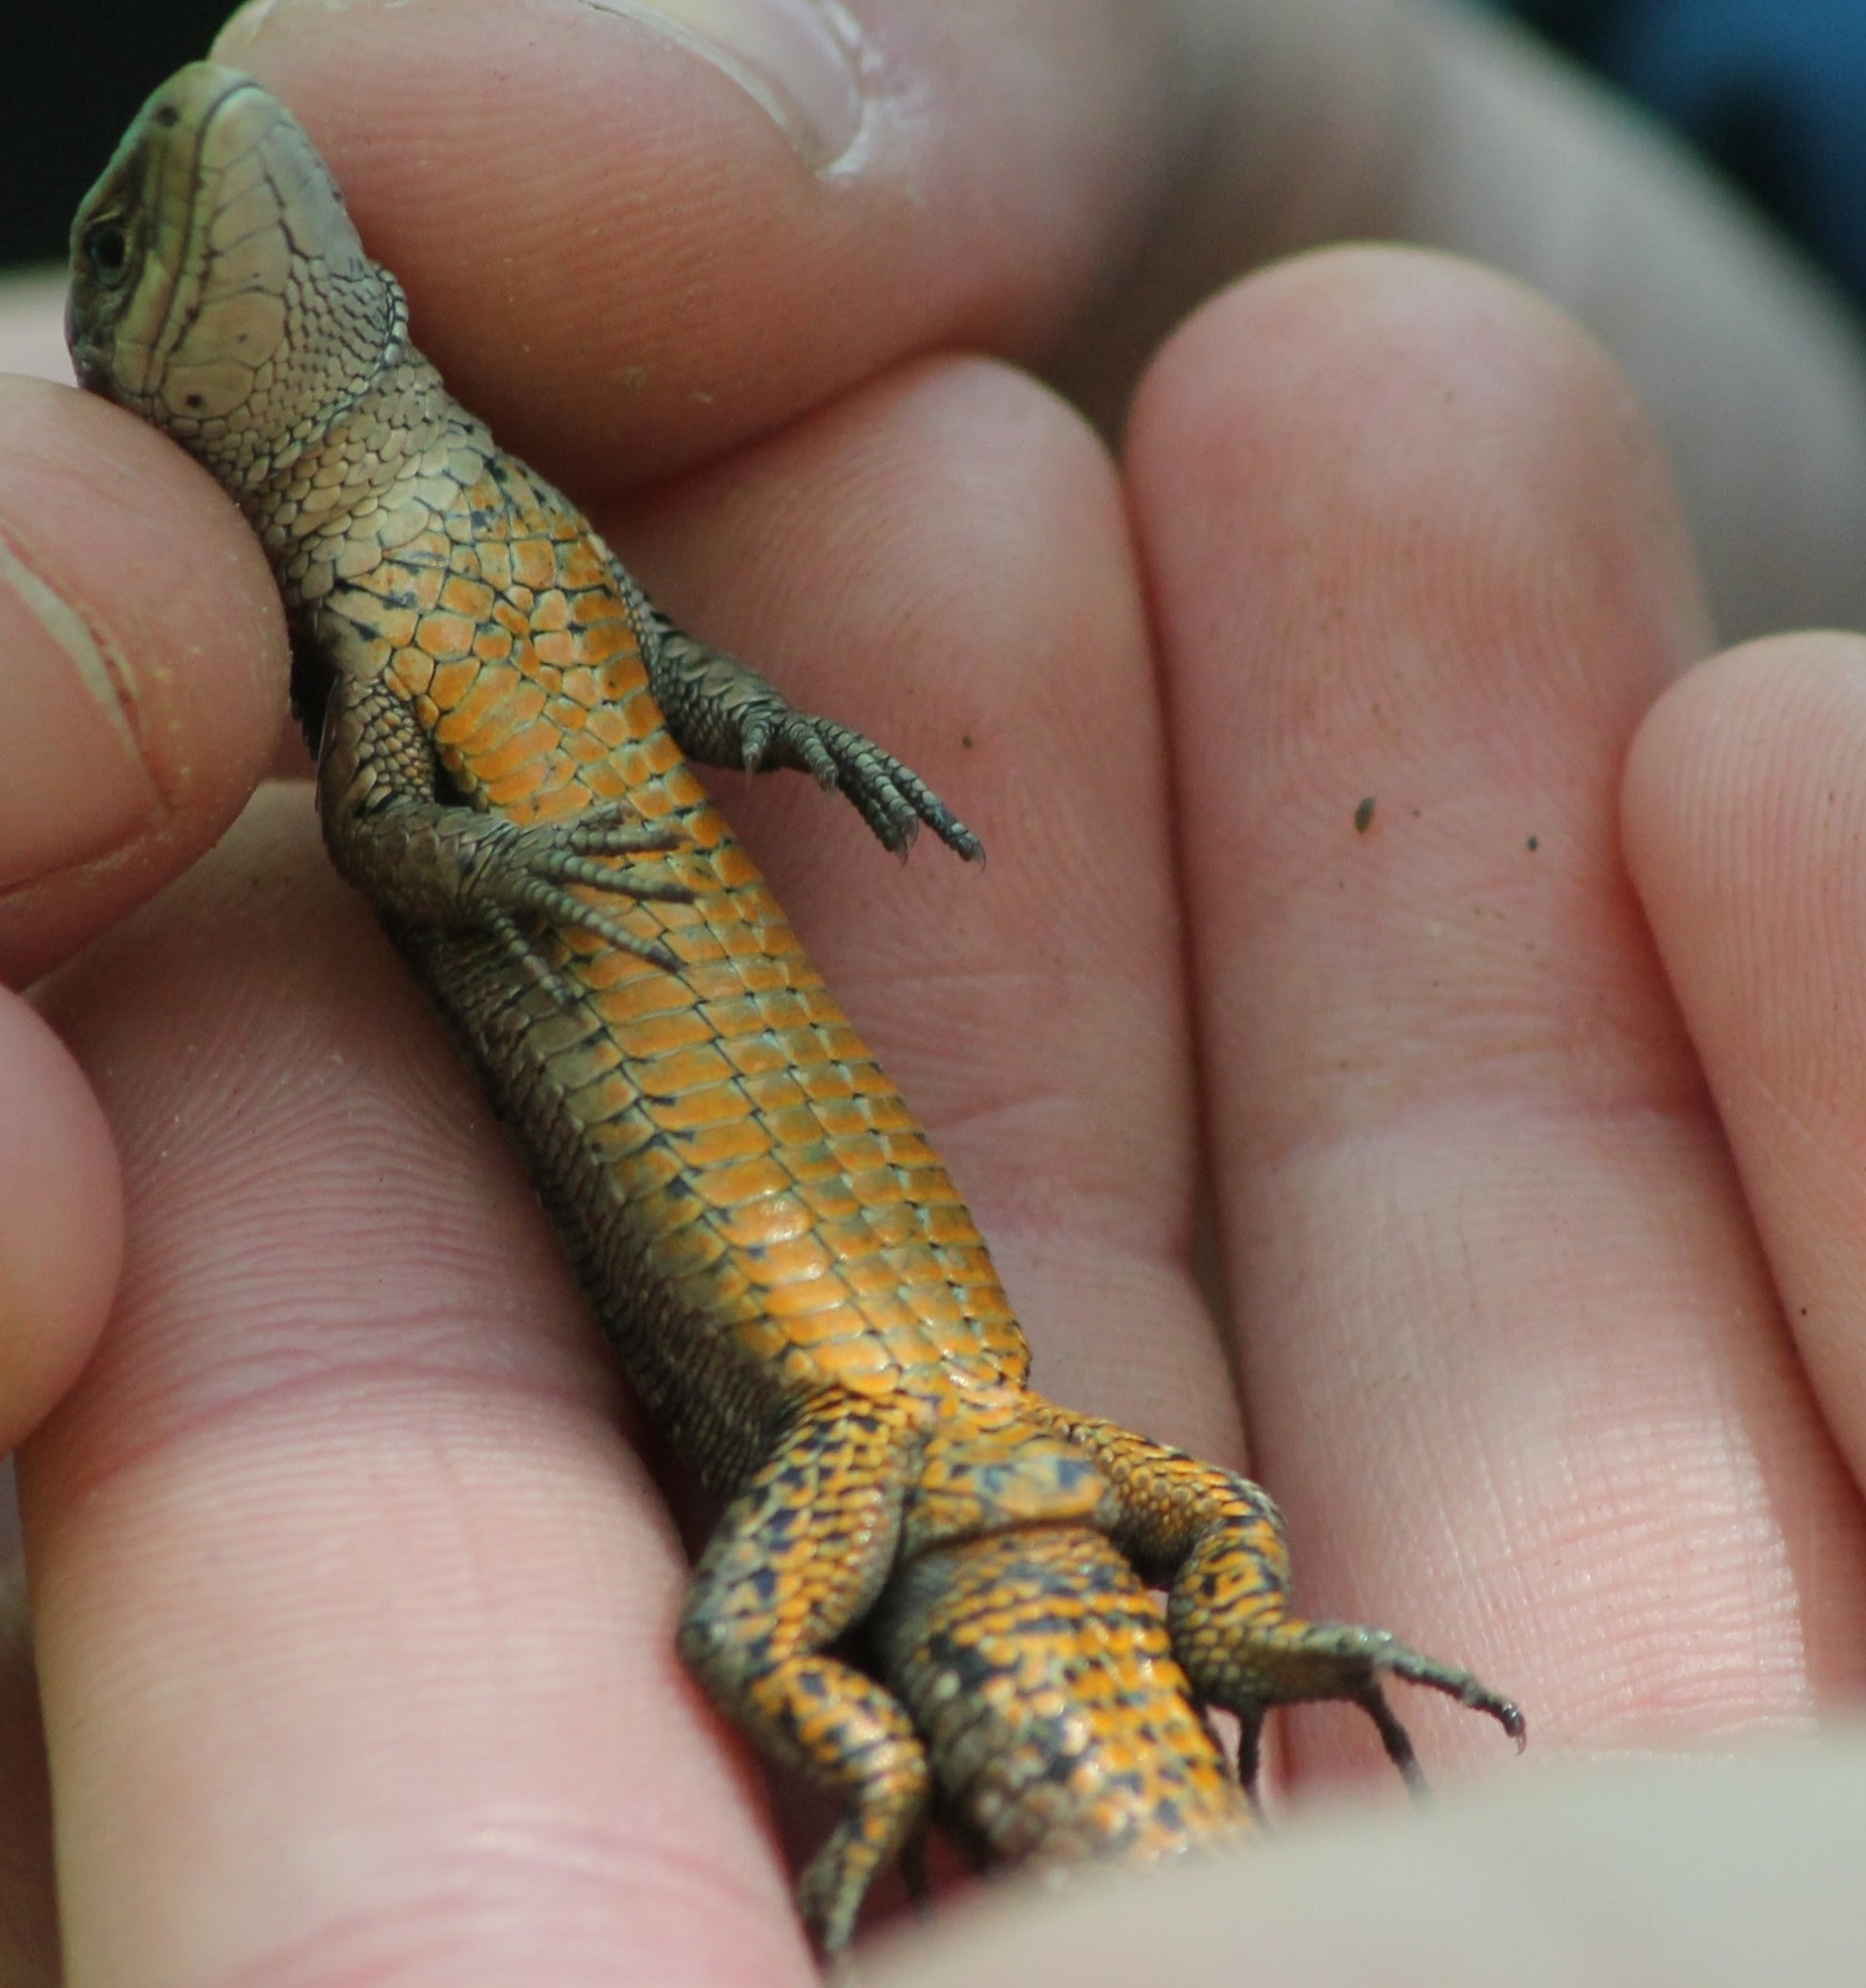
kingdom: Animalia
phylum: Chordata
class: Squamata
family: Lacertidae
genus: Zootoca
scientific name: Zootoca vivipara
